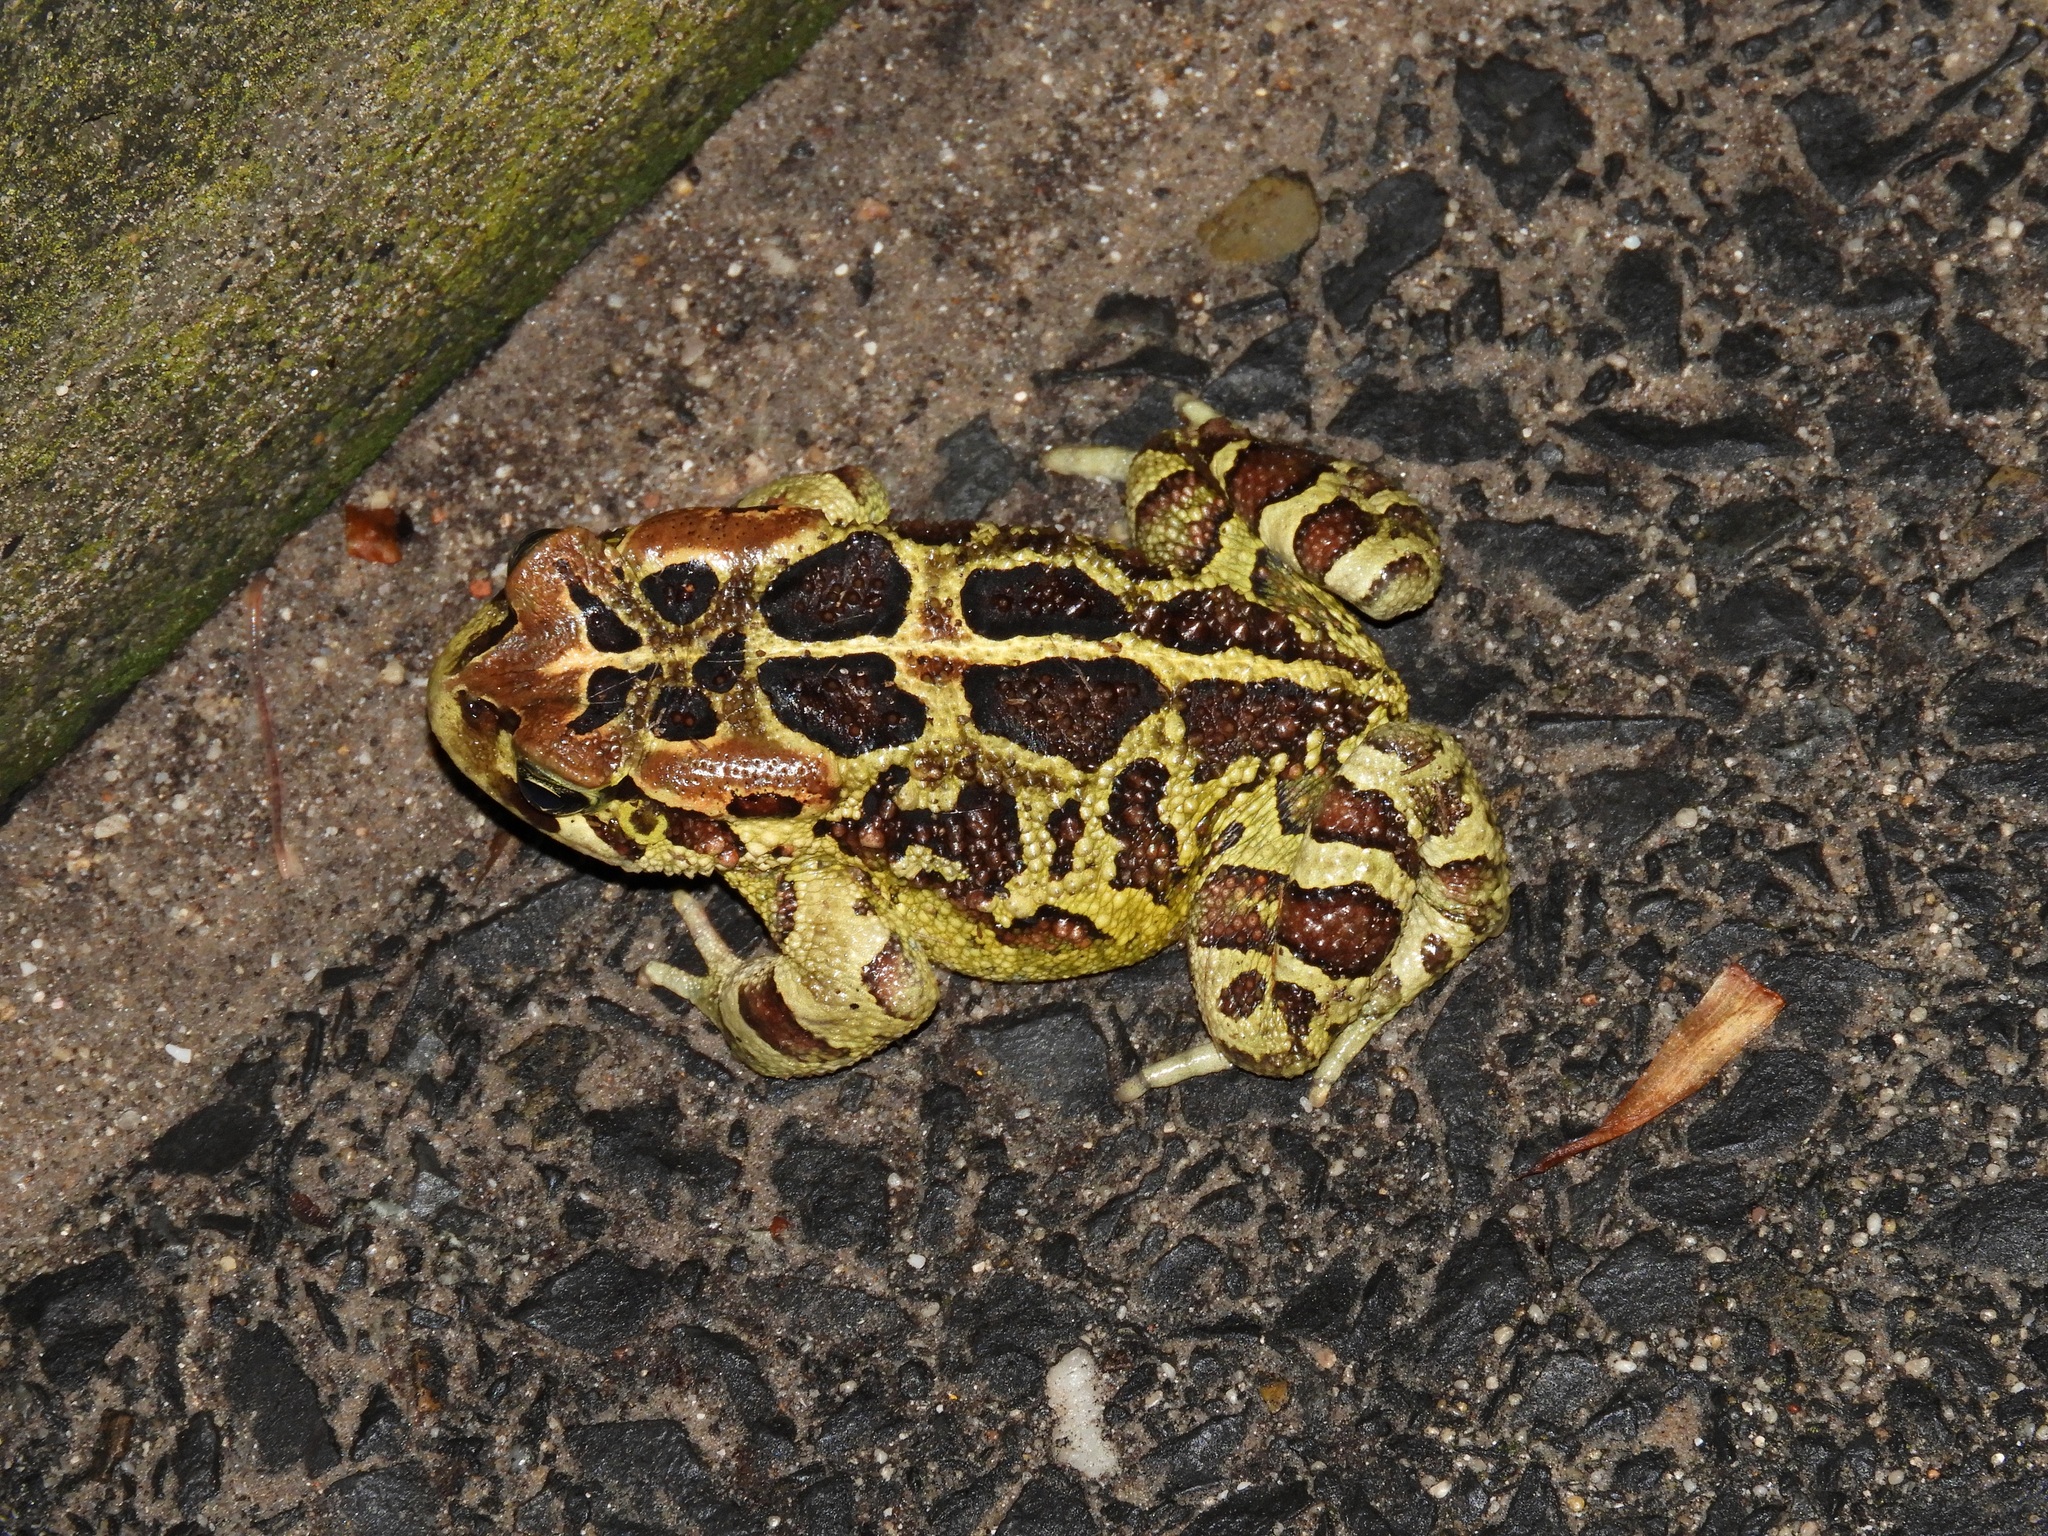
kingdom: Animalia
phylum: Chordata
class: Amphibia
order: Anura
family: Bufonidae
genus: Sclerophrys
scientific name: Sclerophrys pantherina
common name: Panther toad
